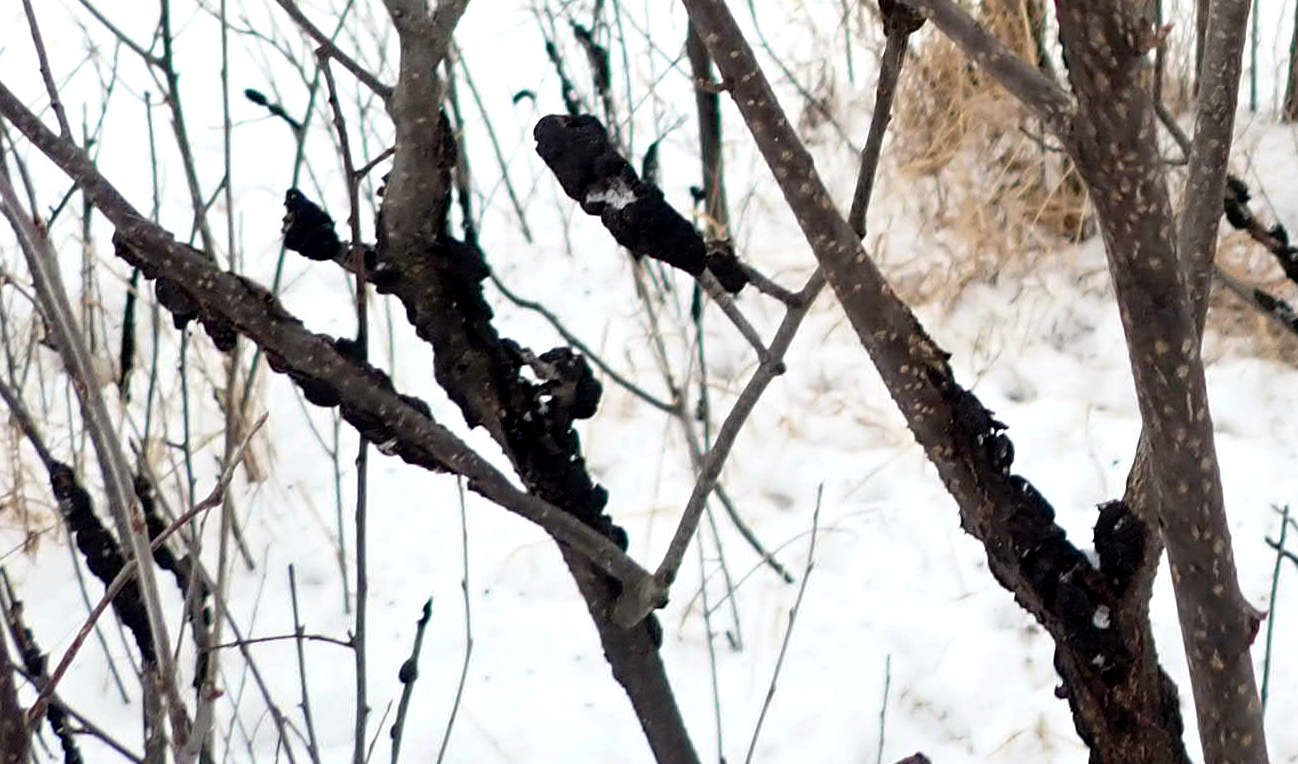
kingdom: Fungi
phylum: Ascomycota
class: Dothideomycetes
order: Venturiales
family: Venturiaceae
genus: Apiosporina
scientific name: Apiosporina morbosa
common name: Black knot
